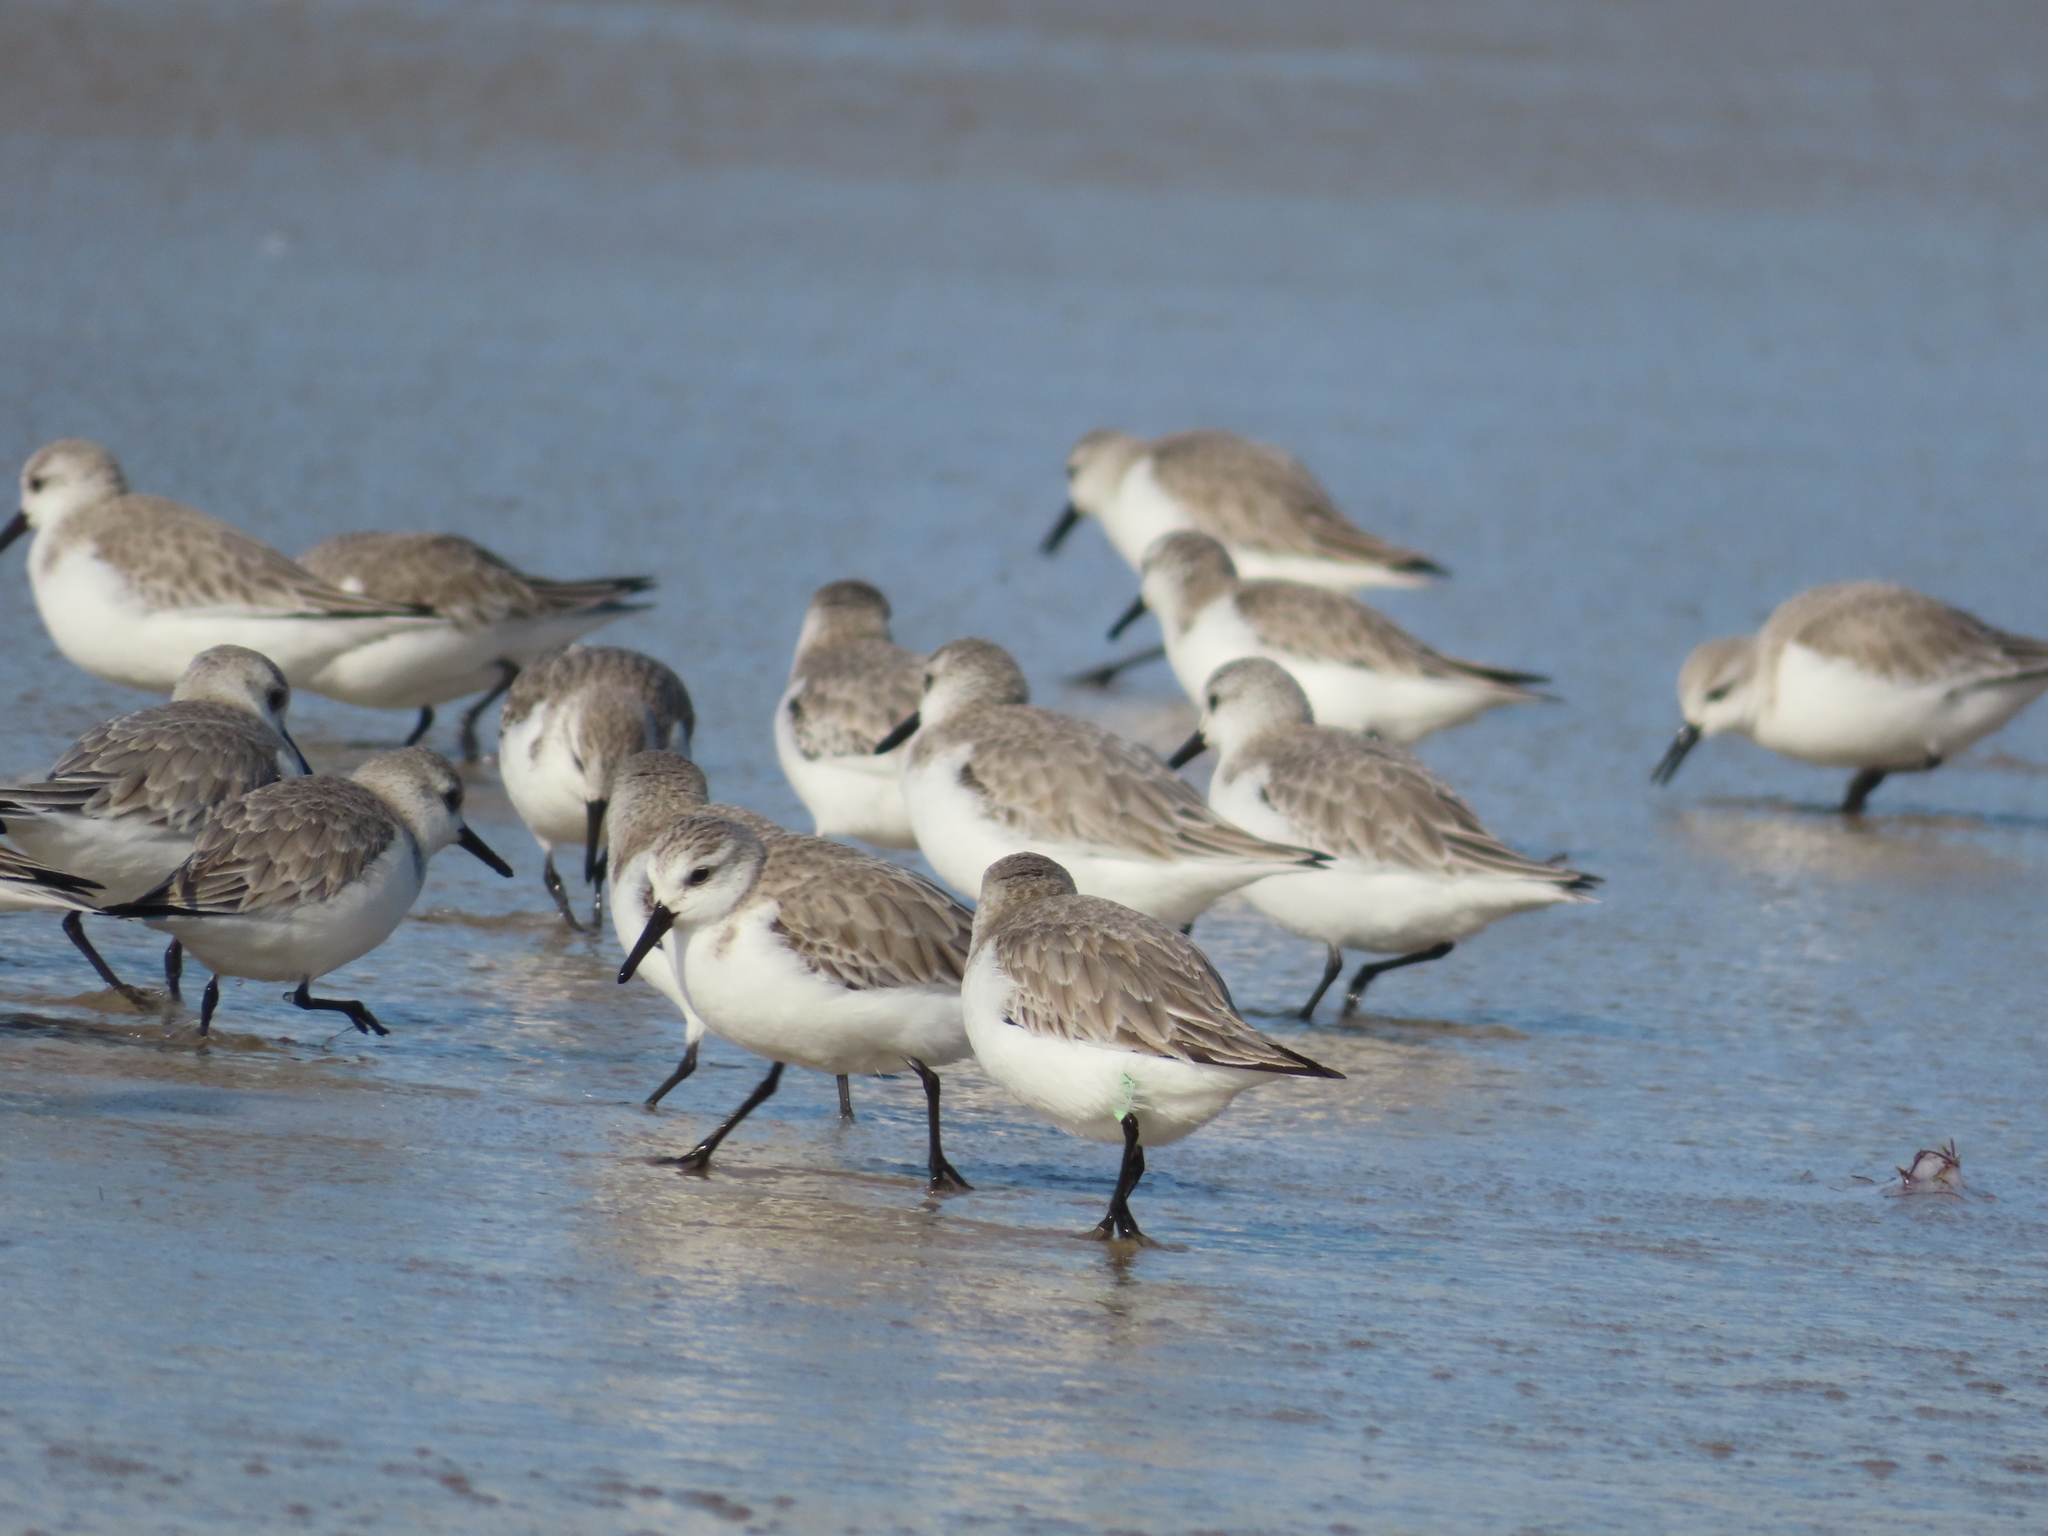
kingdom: Animalia
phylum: Chordata
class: Aves
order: Charadriiformes
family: Scolopacidae
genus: Calidris
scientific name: Calidris alba
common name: Sanderling
